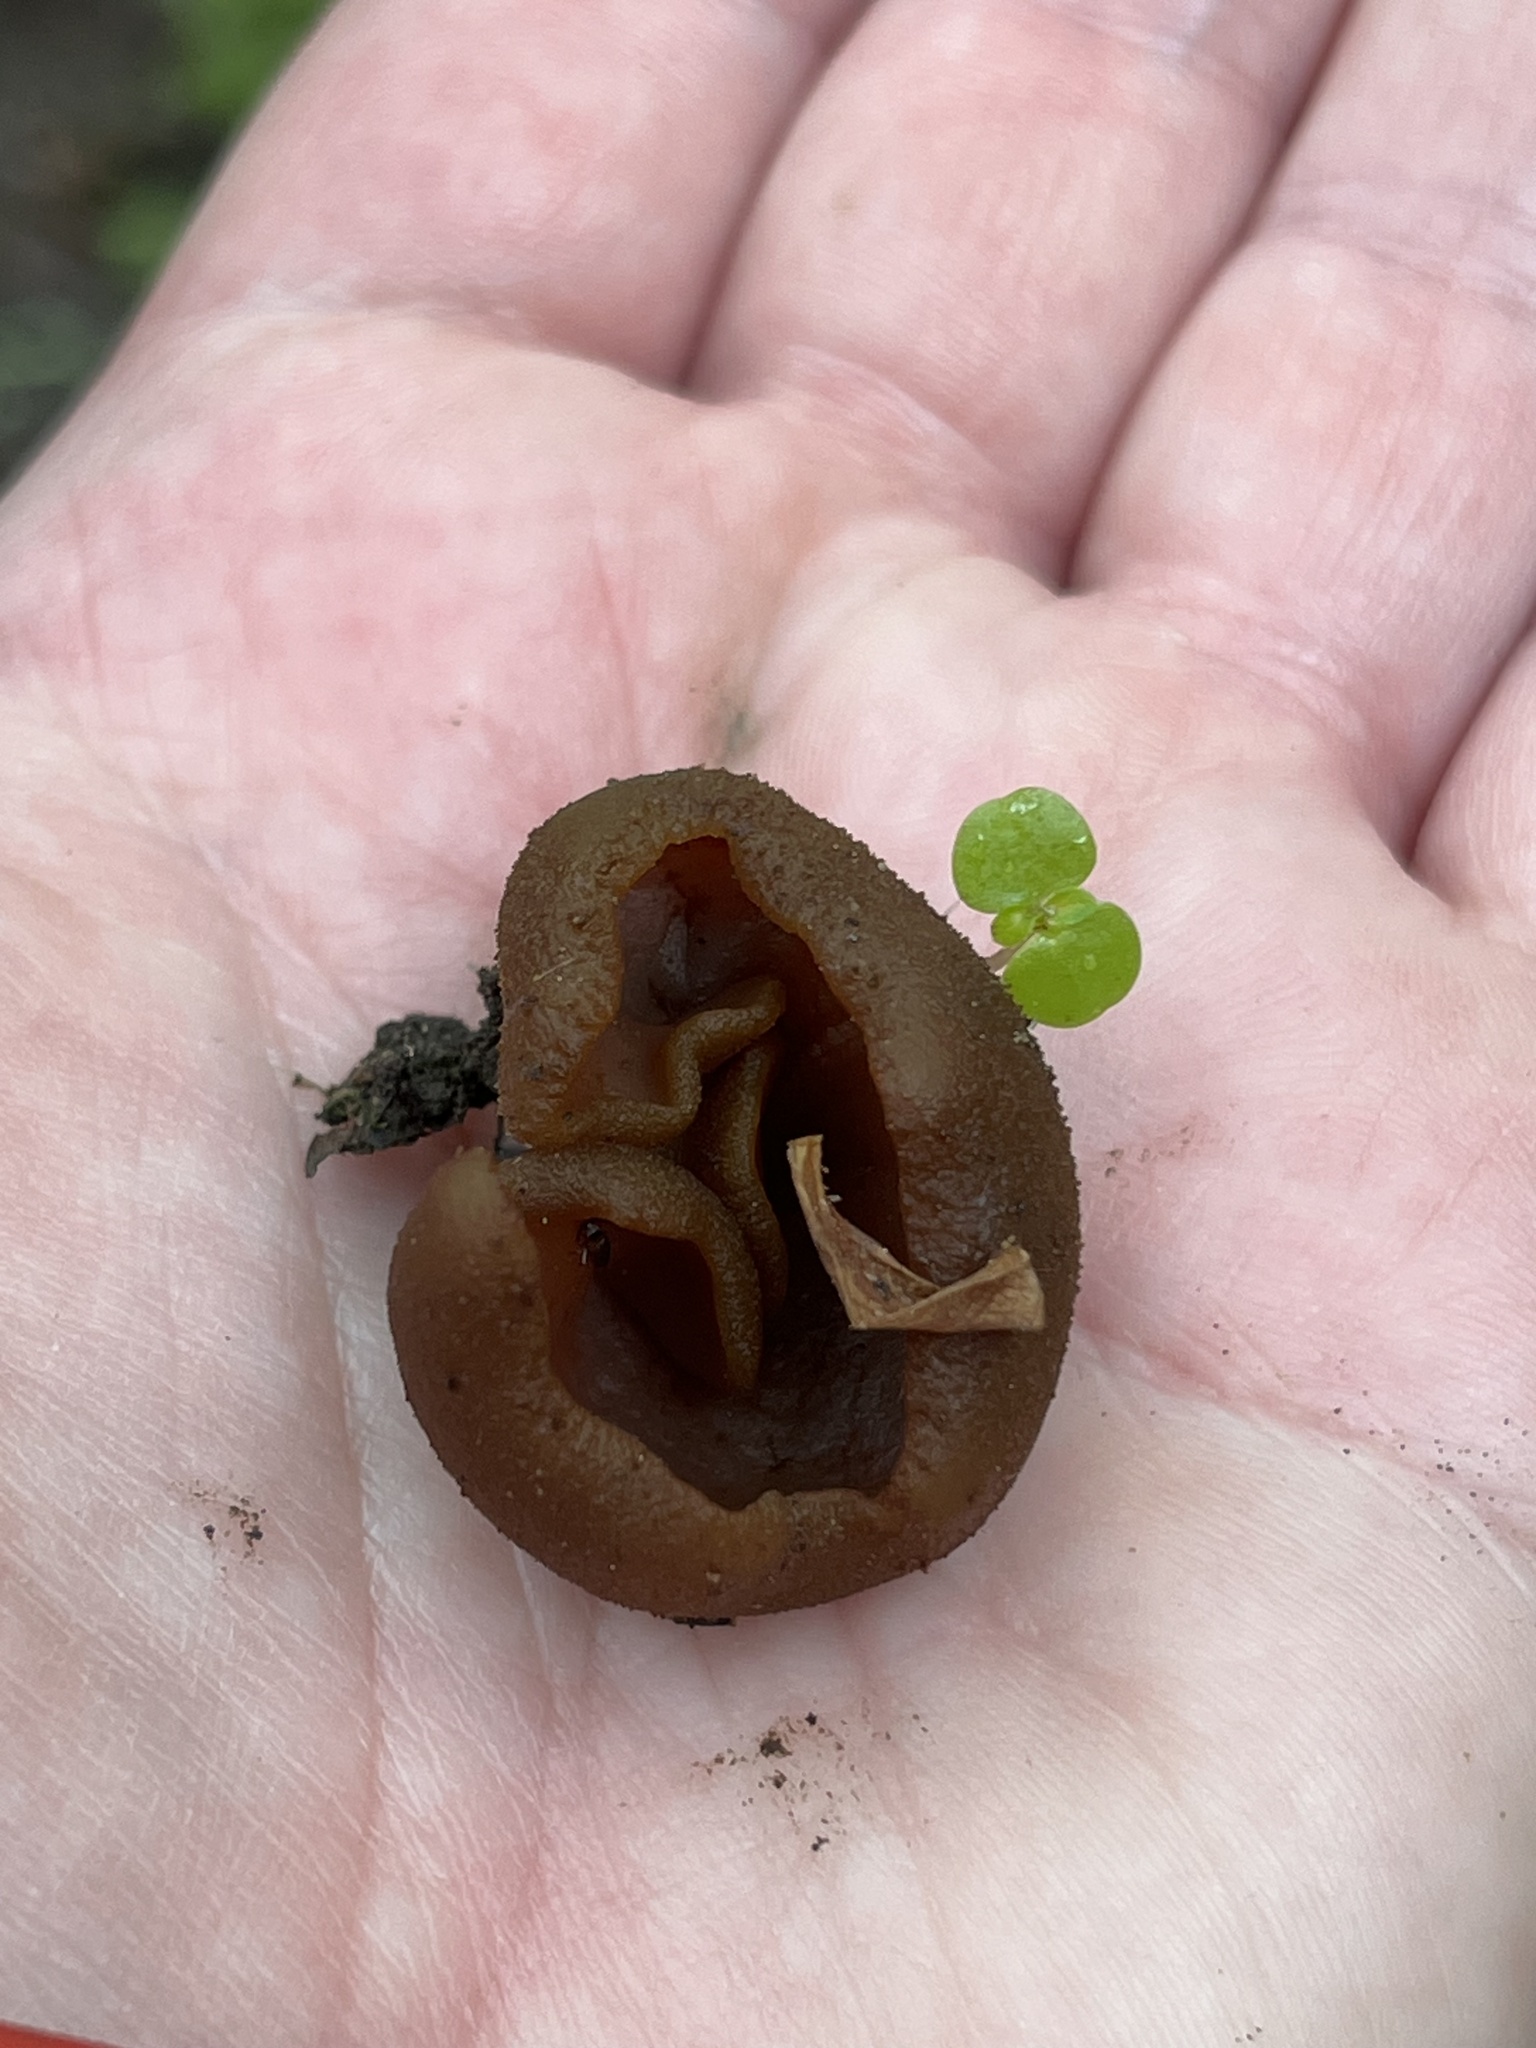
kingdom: Fungi
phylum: Ascomycota
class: Pezizomycetes
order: Pezizales
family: Pezizaceae
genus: Phylloscypha
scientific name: Phylloscypha phyllogena
